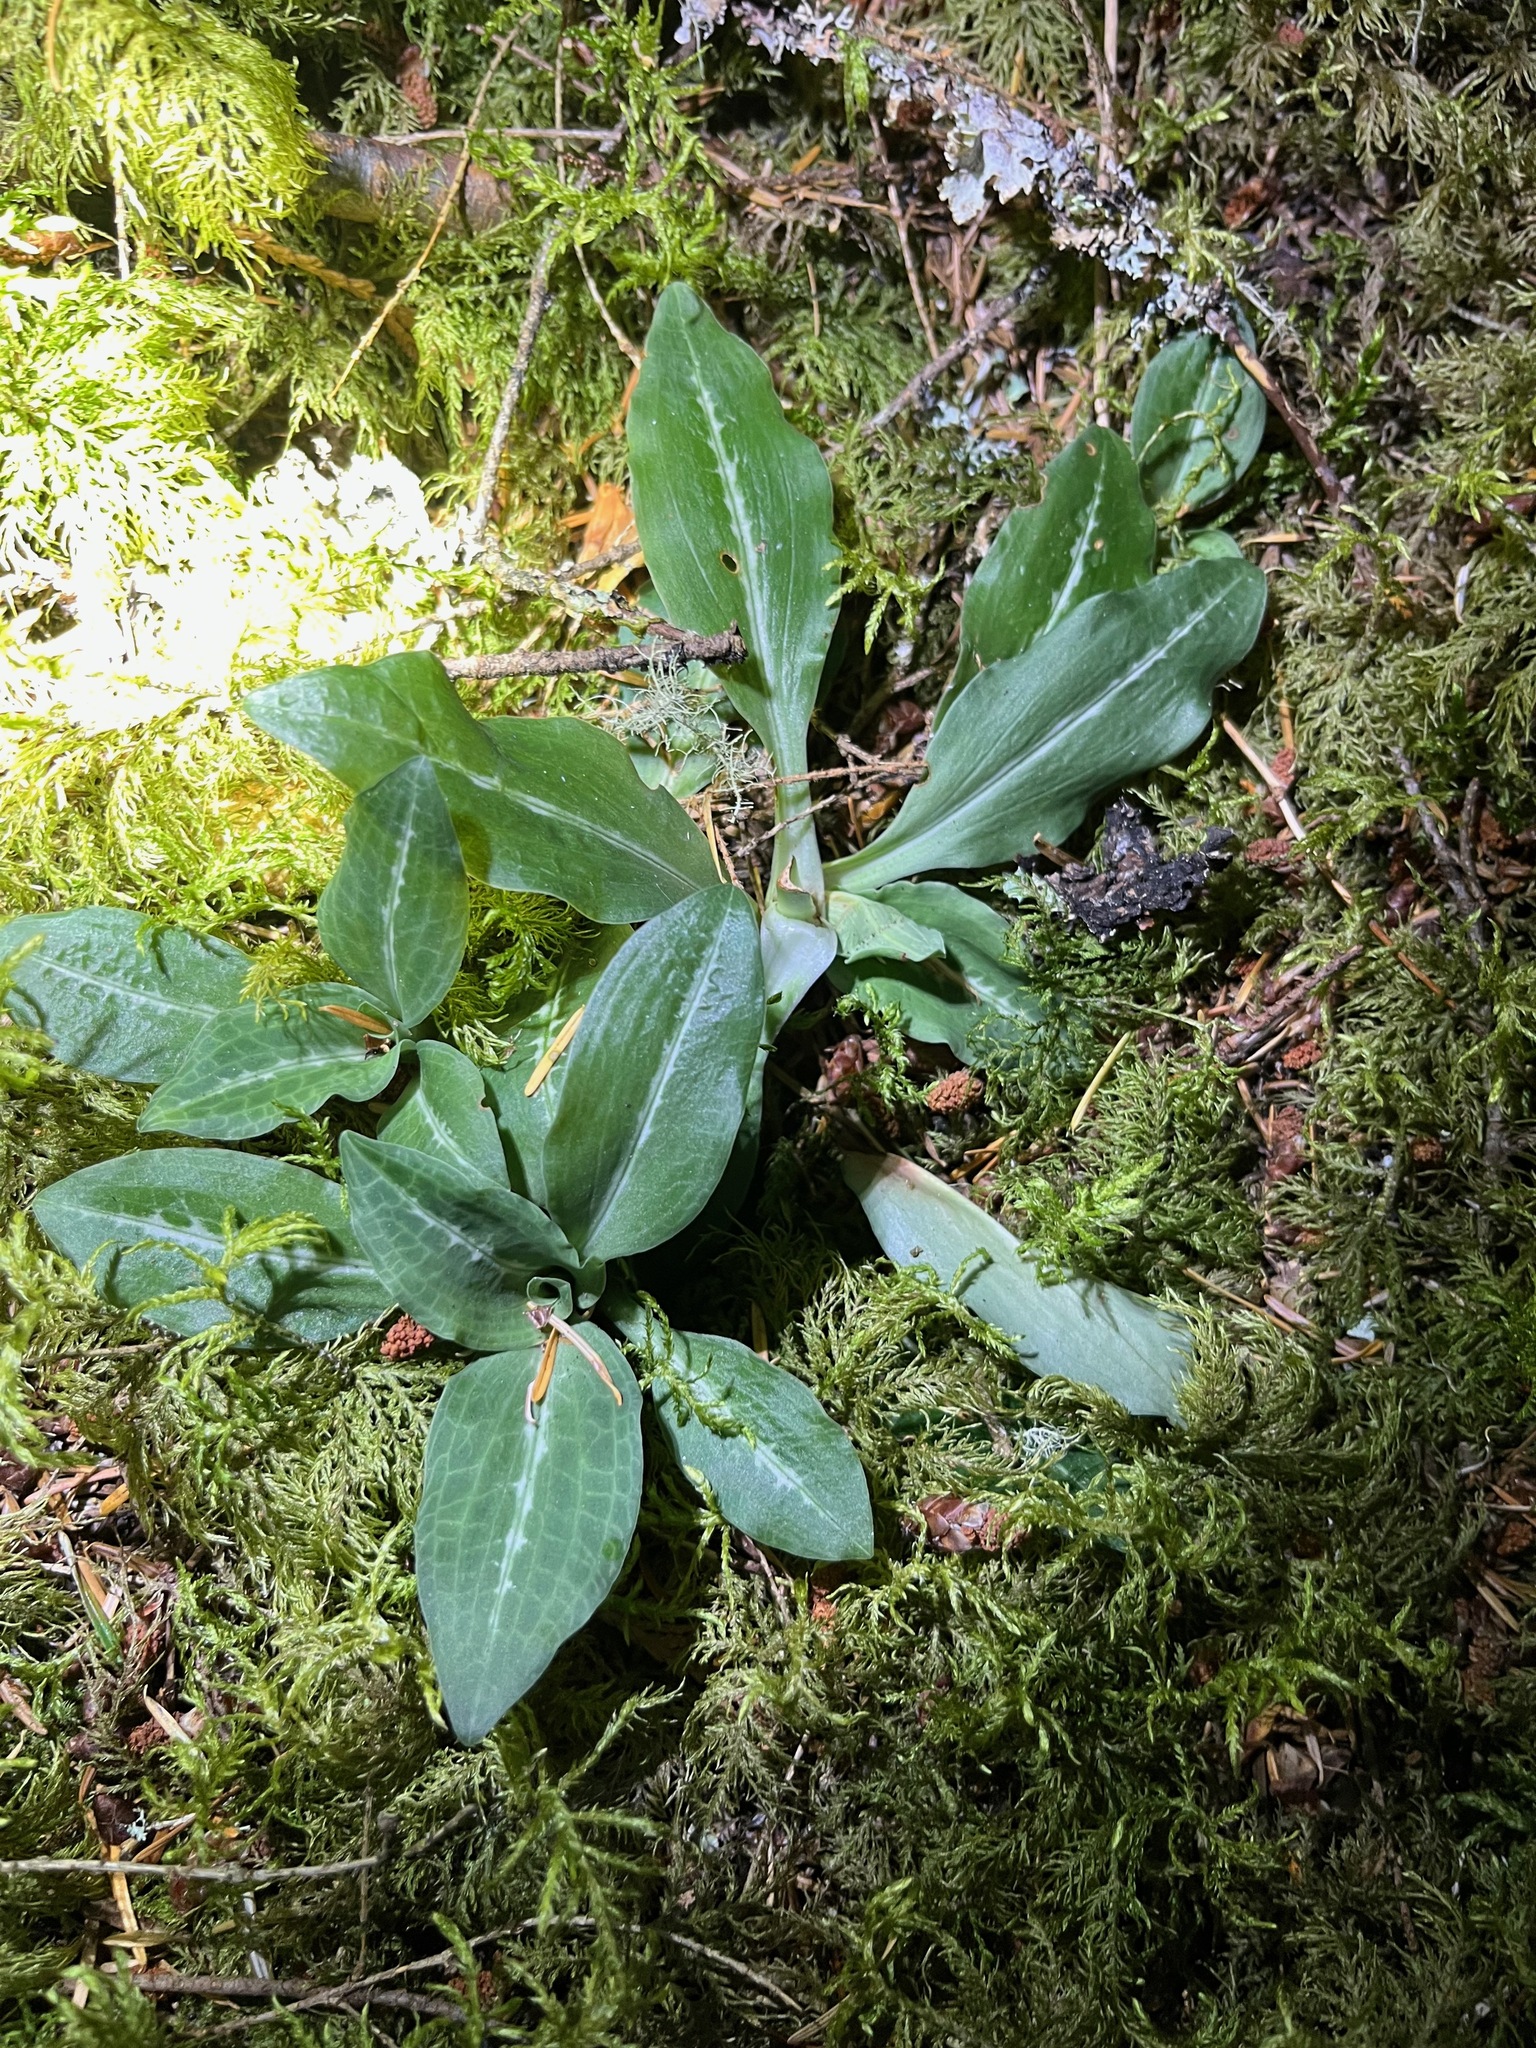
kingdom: Plantae
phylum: Tracheophyta
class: Liliopsida
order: Asparagales
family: Orchidaceae
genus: Goodyera
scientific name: Goodyera oblongifolia
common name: Giant rattlesnake-plantain
